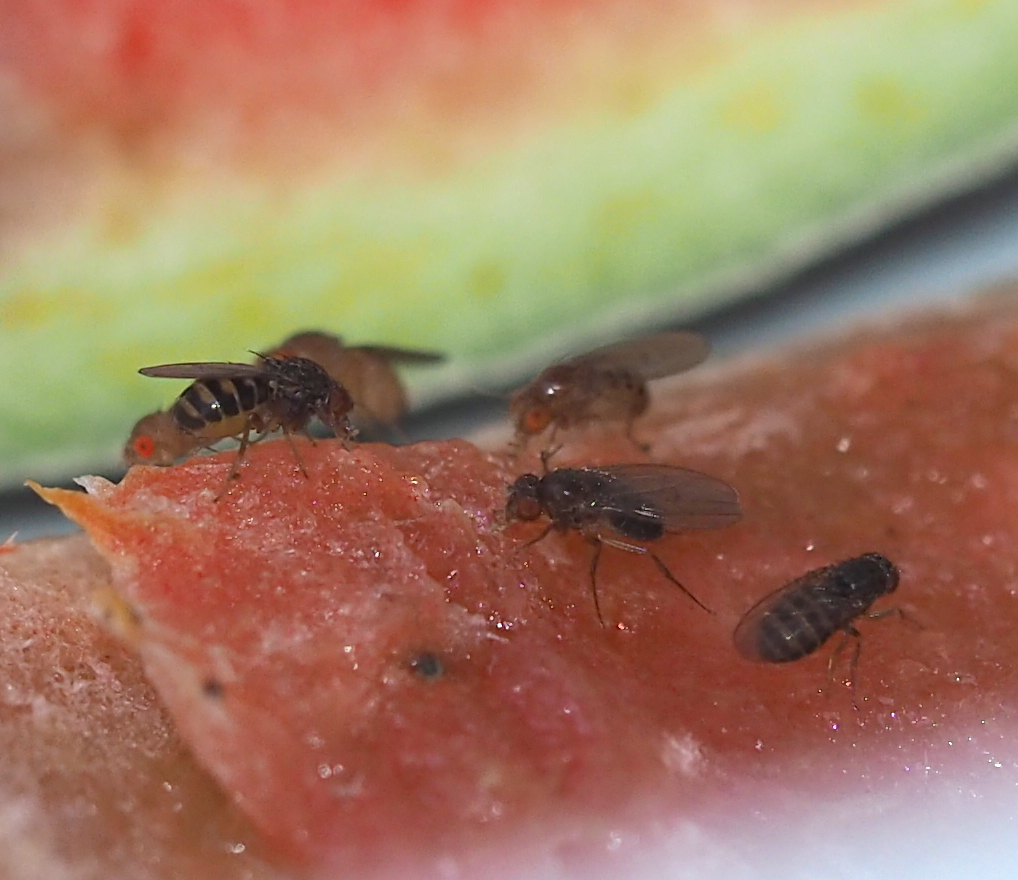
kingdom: Animalia
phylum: Arthropoda
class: Insecta
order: Diptera
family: Drosophilidae
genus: Drosophila
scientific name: Drosophila hydei
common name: Pomace fly
